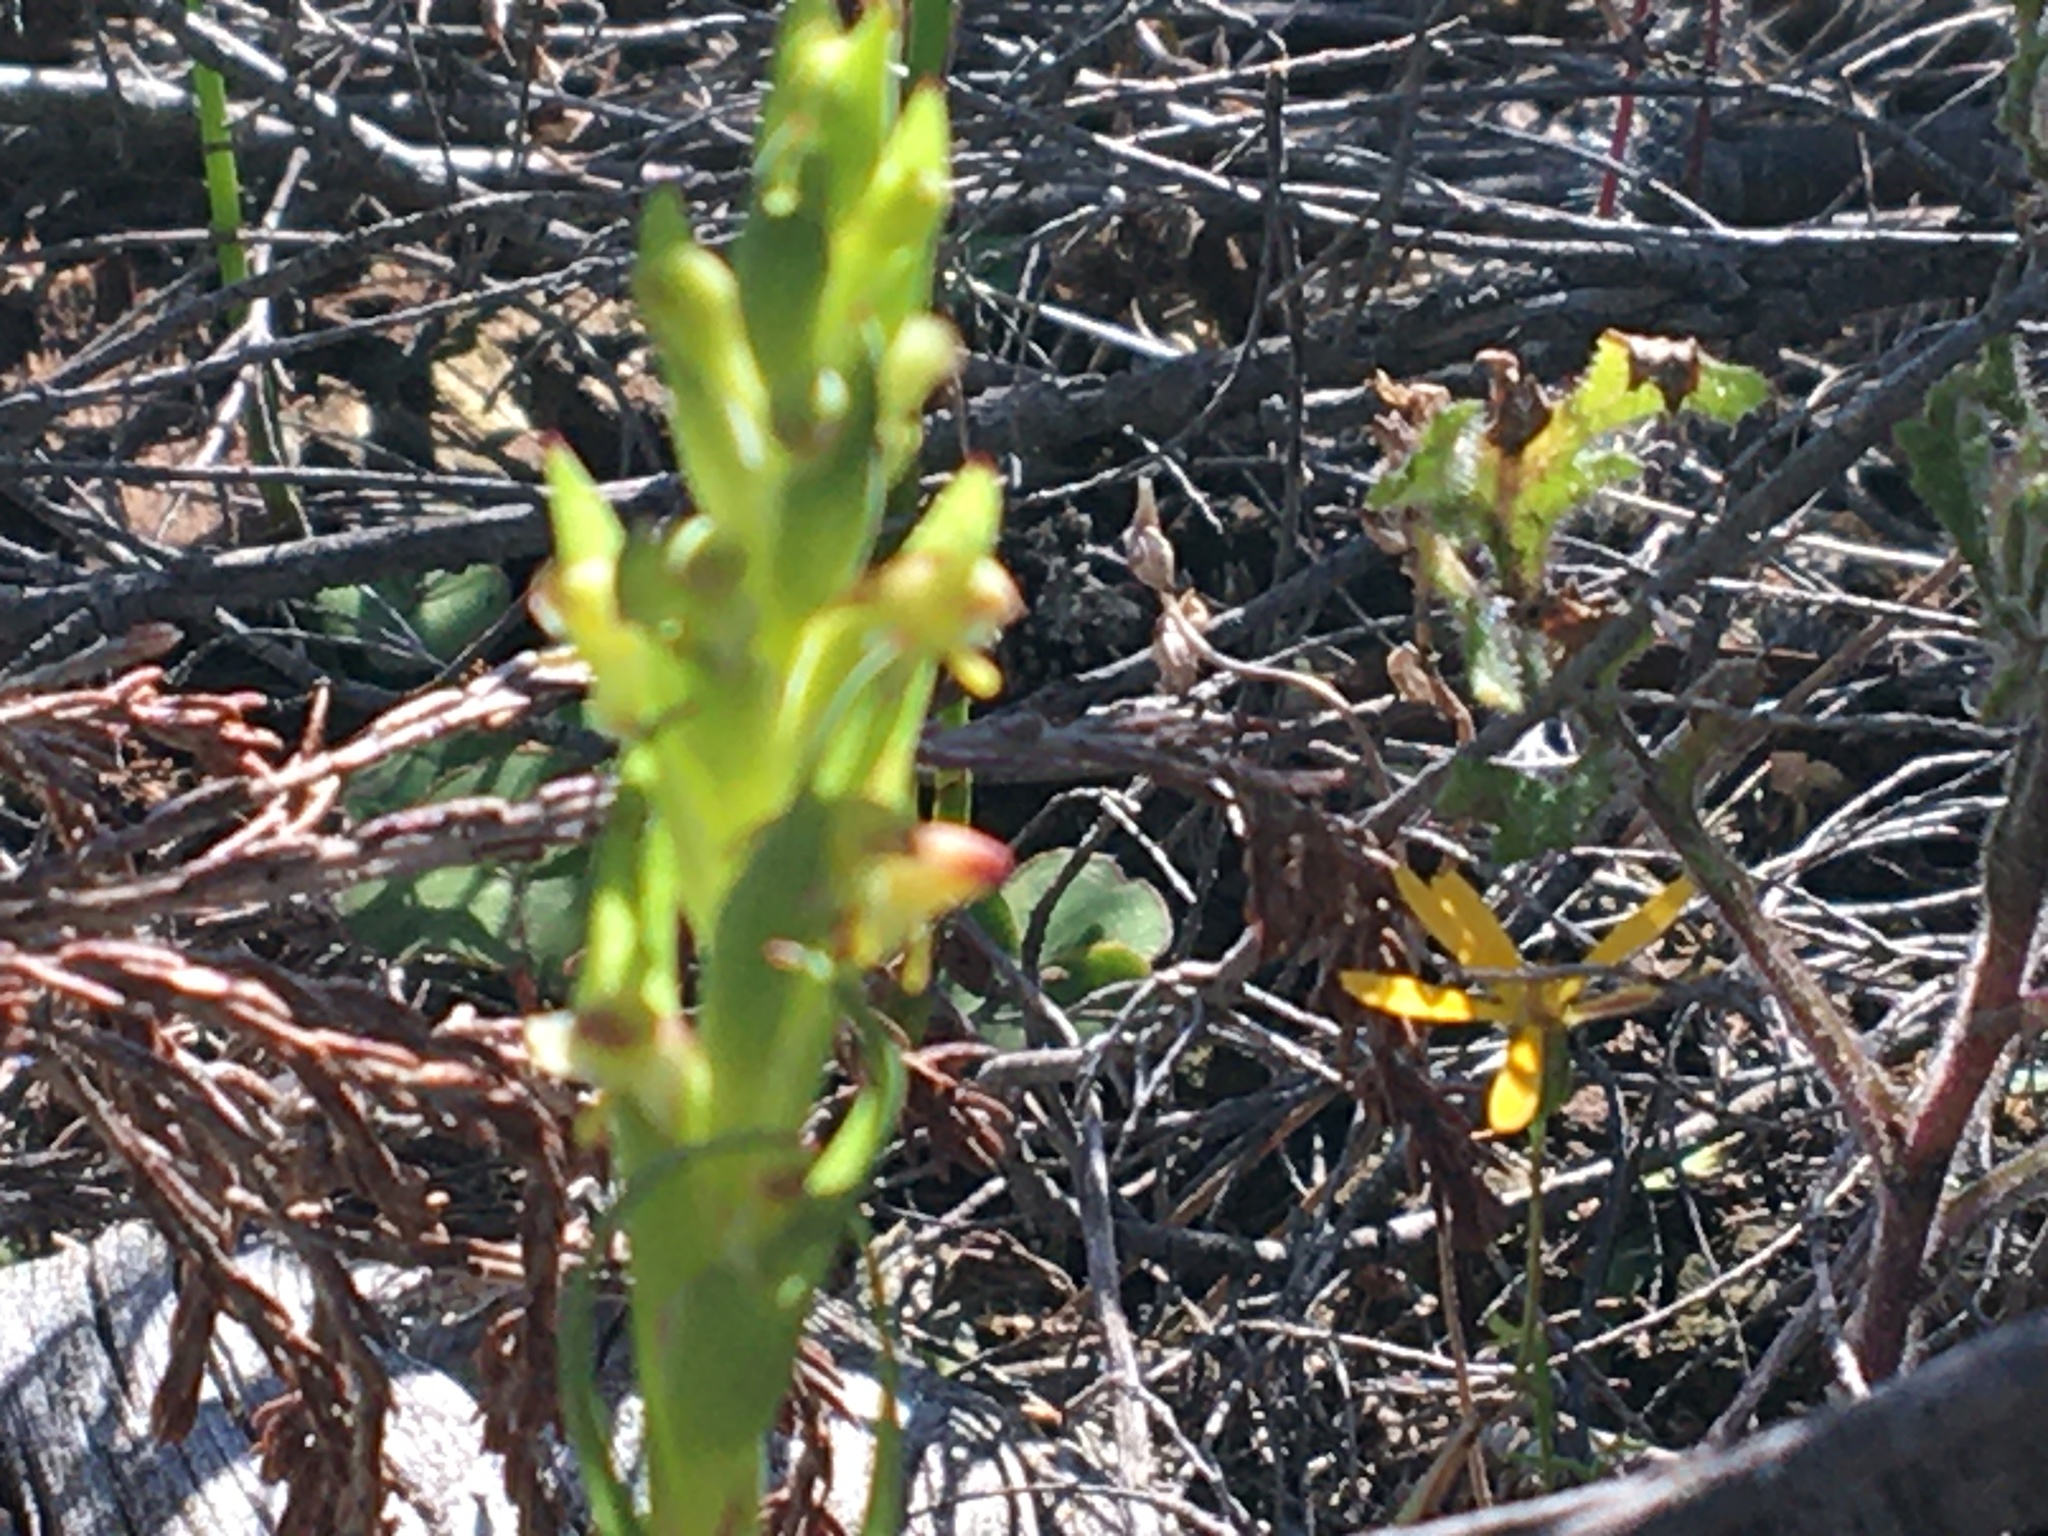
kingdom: Plantae
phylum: Tracheophyta
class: Liliopsida
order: Asparagales
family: Orchidaceae
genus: Disa
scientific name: Disa bracteata
